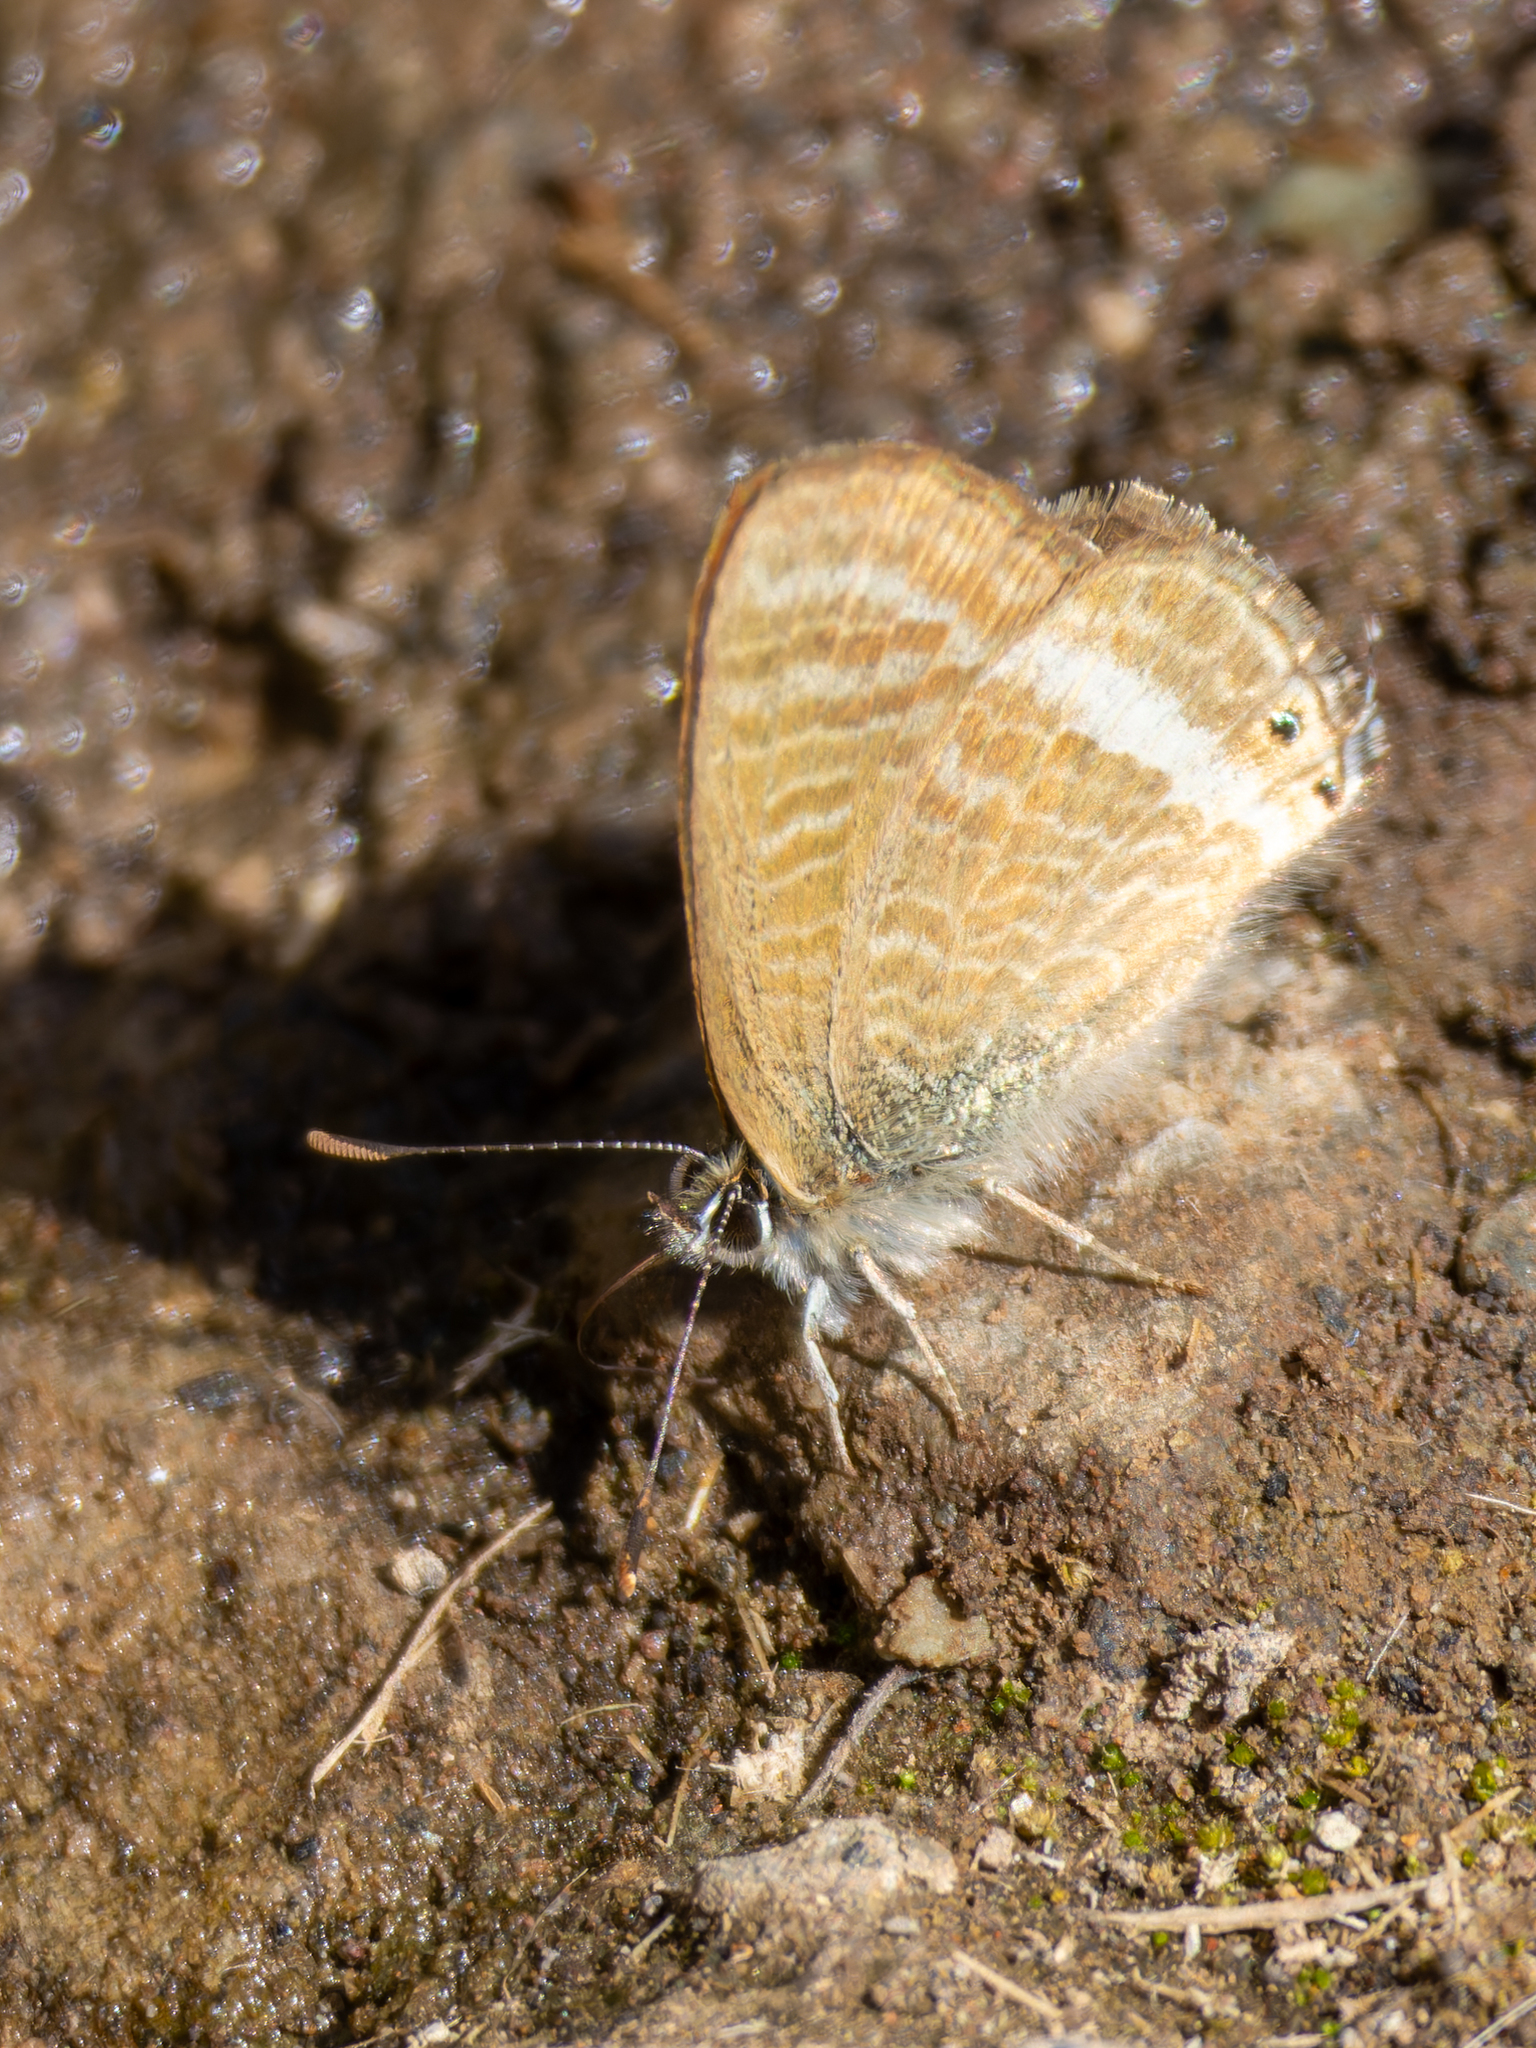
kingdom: Animalia
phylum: Arthropoda
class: Insecta
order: Lepidoptera
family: Lycaenidae
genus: Lampides
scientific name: Lampides boeticus
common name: Long-tailed blue
